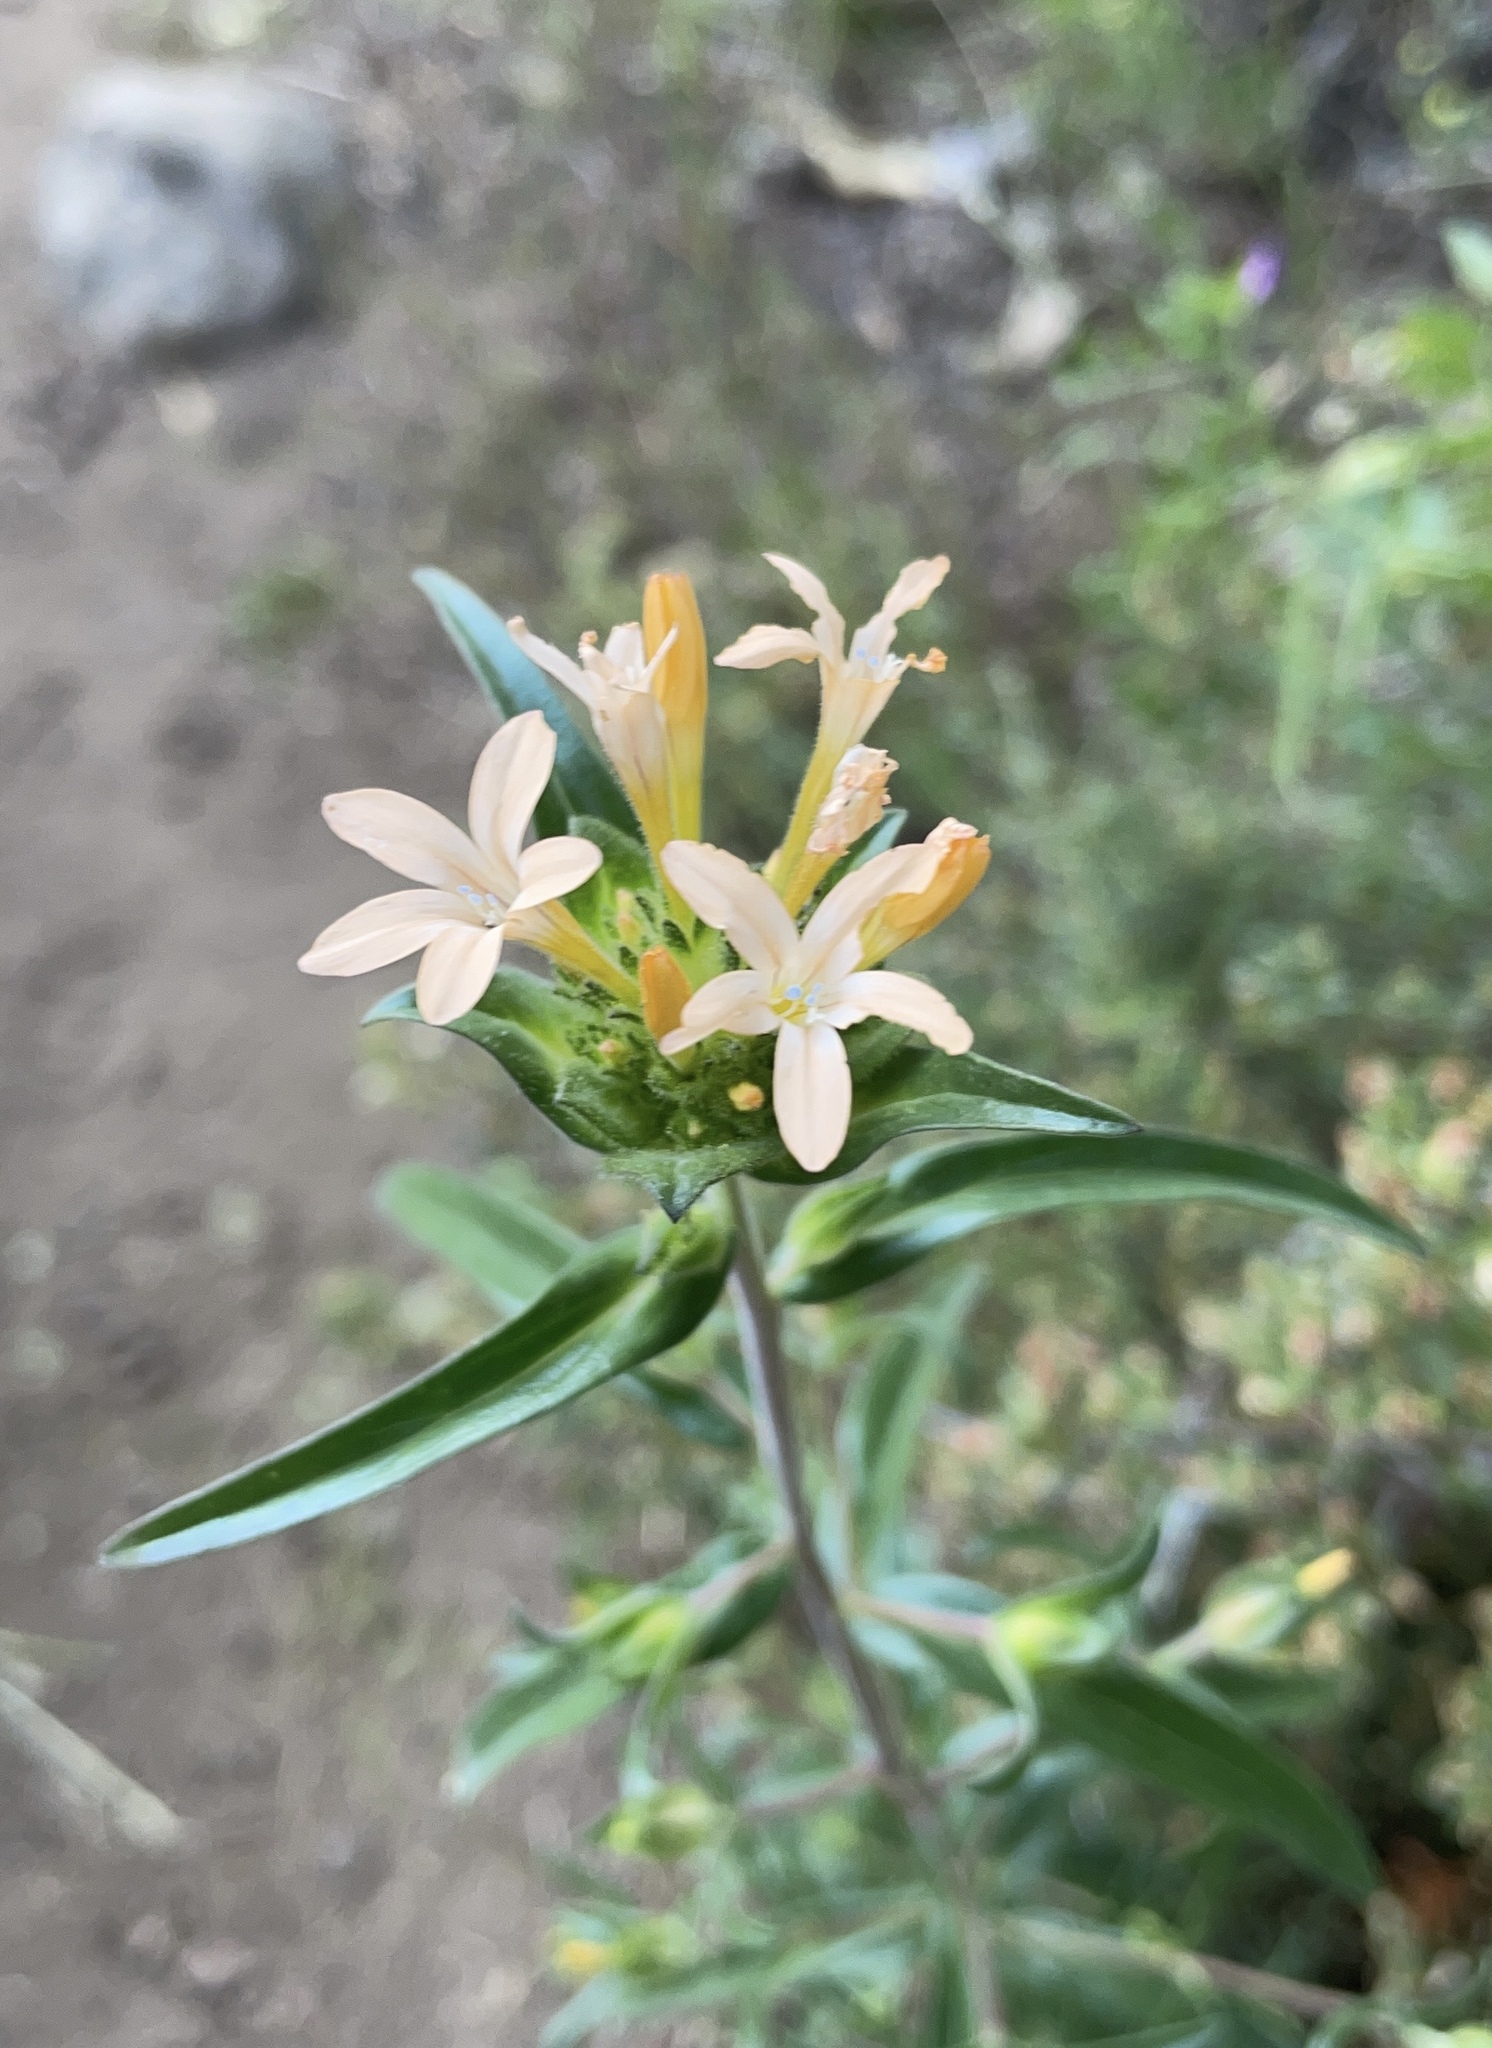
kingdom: Plantae
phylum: Tracheophyta
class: Magnoliopsida
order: Ericales
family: Polemoniaceae
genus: Collomia
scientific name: Collomia grandiflora
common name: California strawflower
